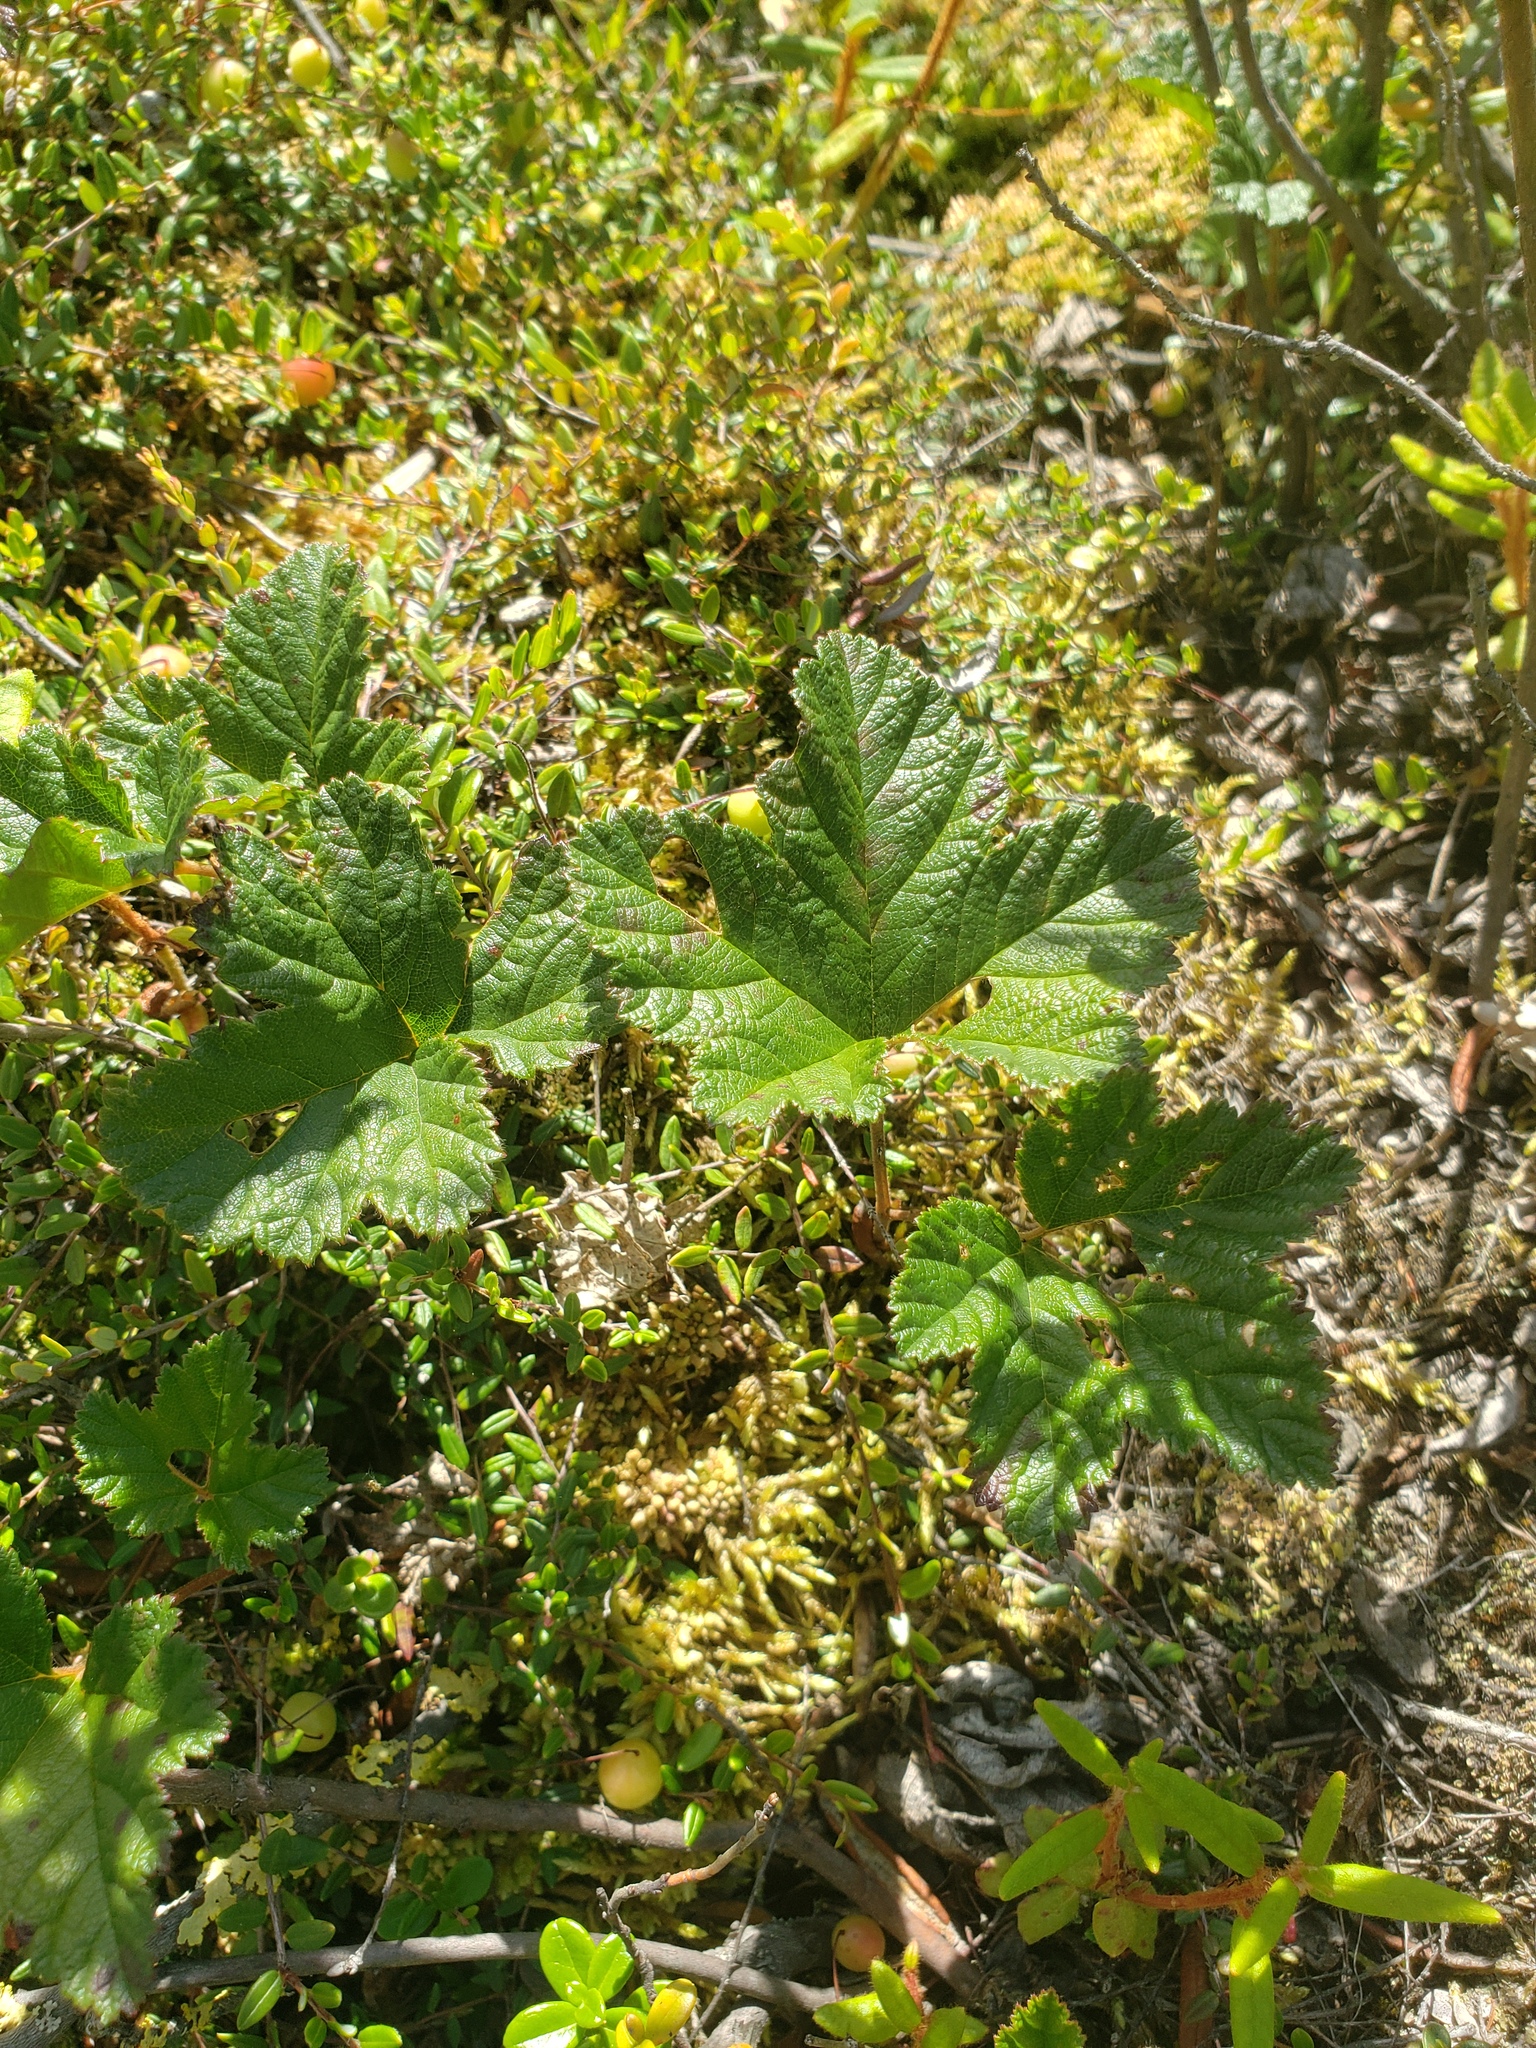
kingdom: Plantae
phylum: Tracheophyta
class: Magnoliopsida
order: Rosales
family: Rosaceae
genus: Rubus
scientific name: Rubus chamaemorus
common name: Cloudberry
